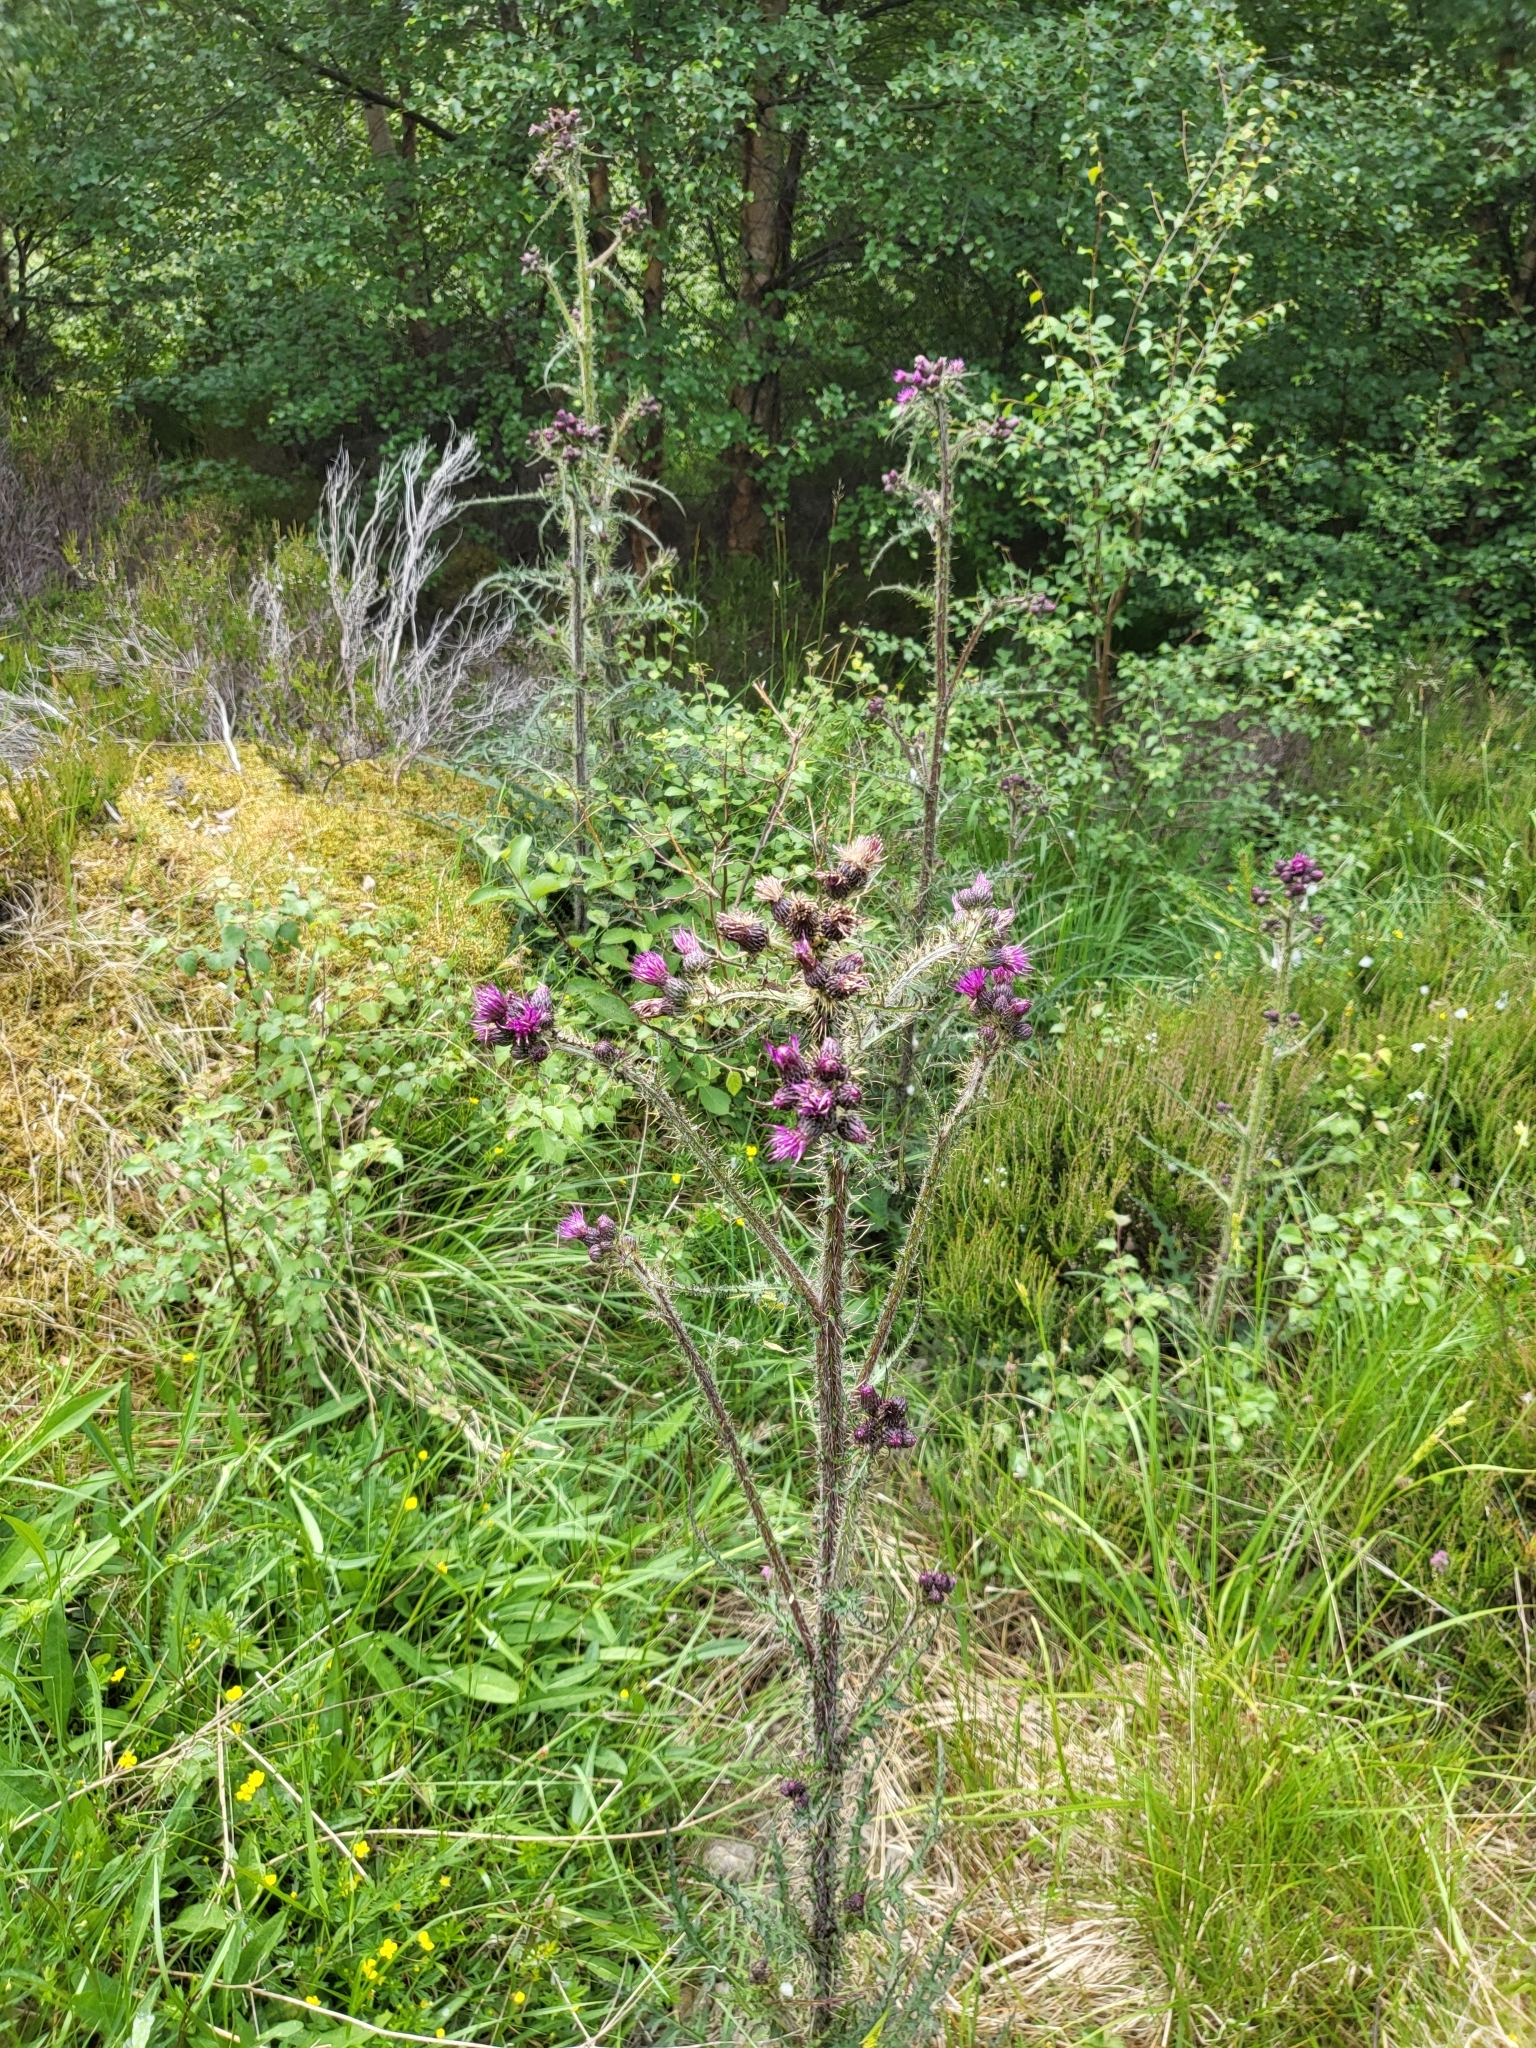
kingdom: Plantae
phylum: Tracheophyta
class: Magnoliopsida
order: Asterales
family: Asteraceae
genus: Cirsium
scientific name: Cirsium palustre
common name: Marsh thistle
